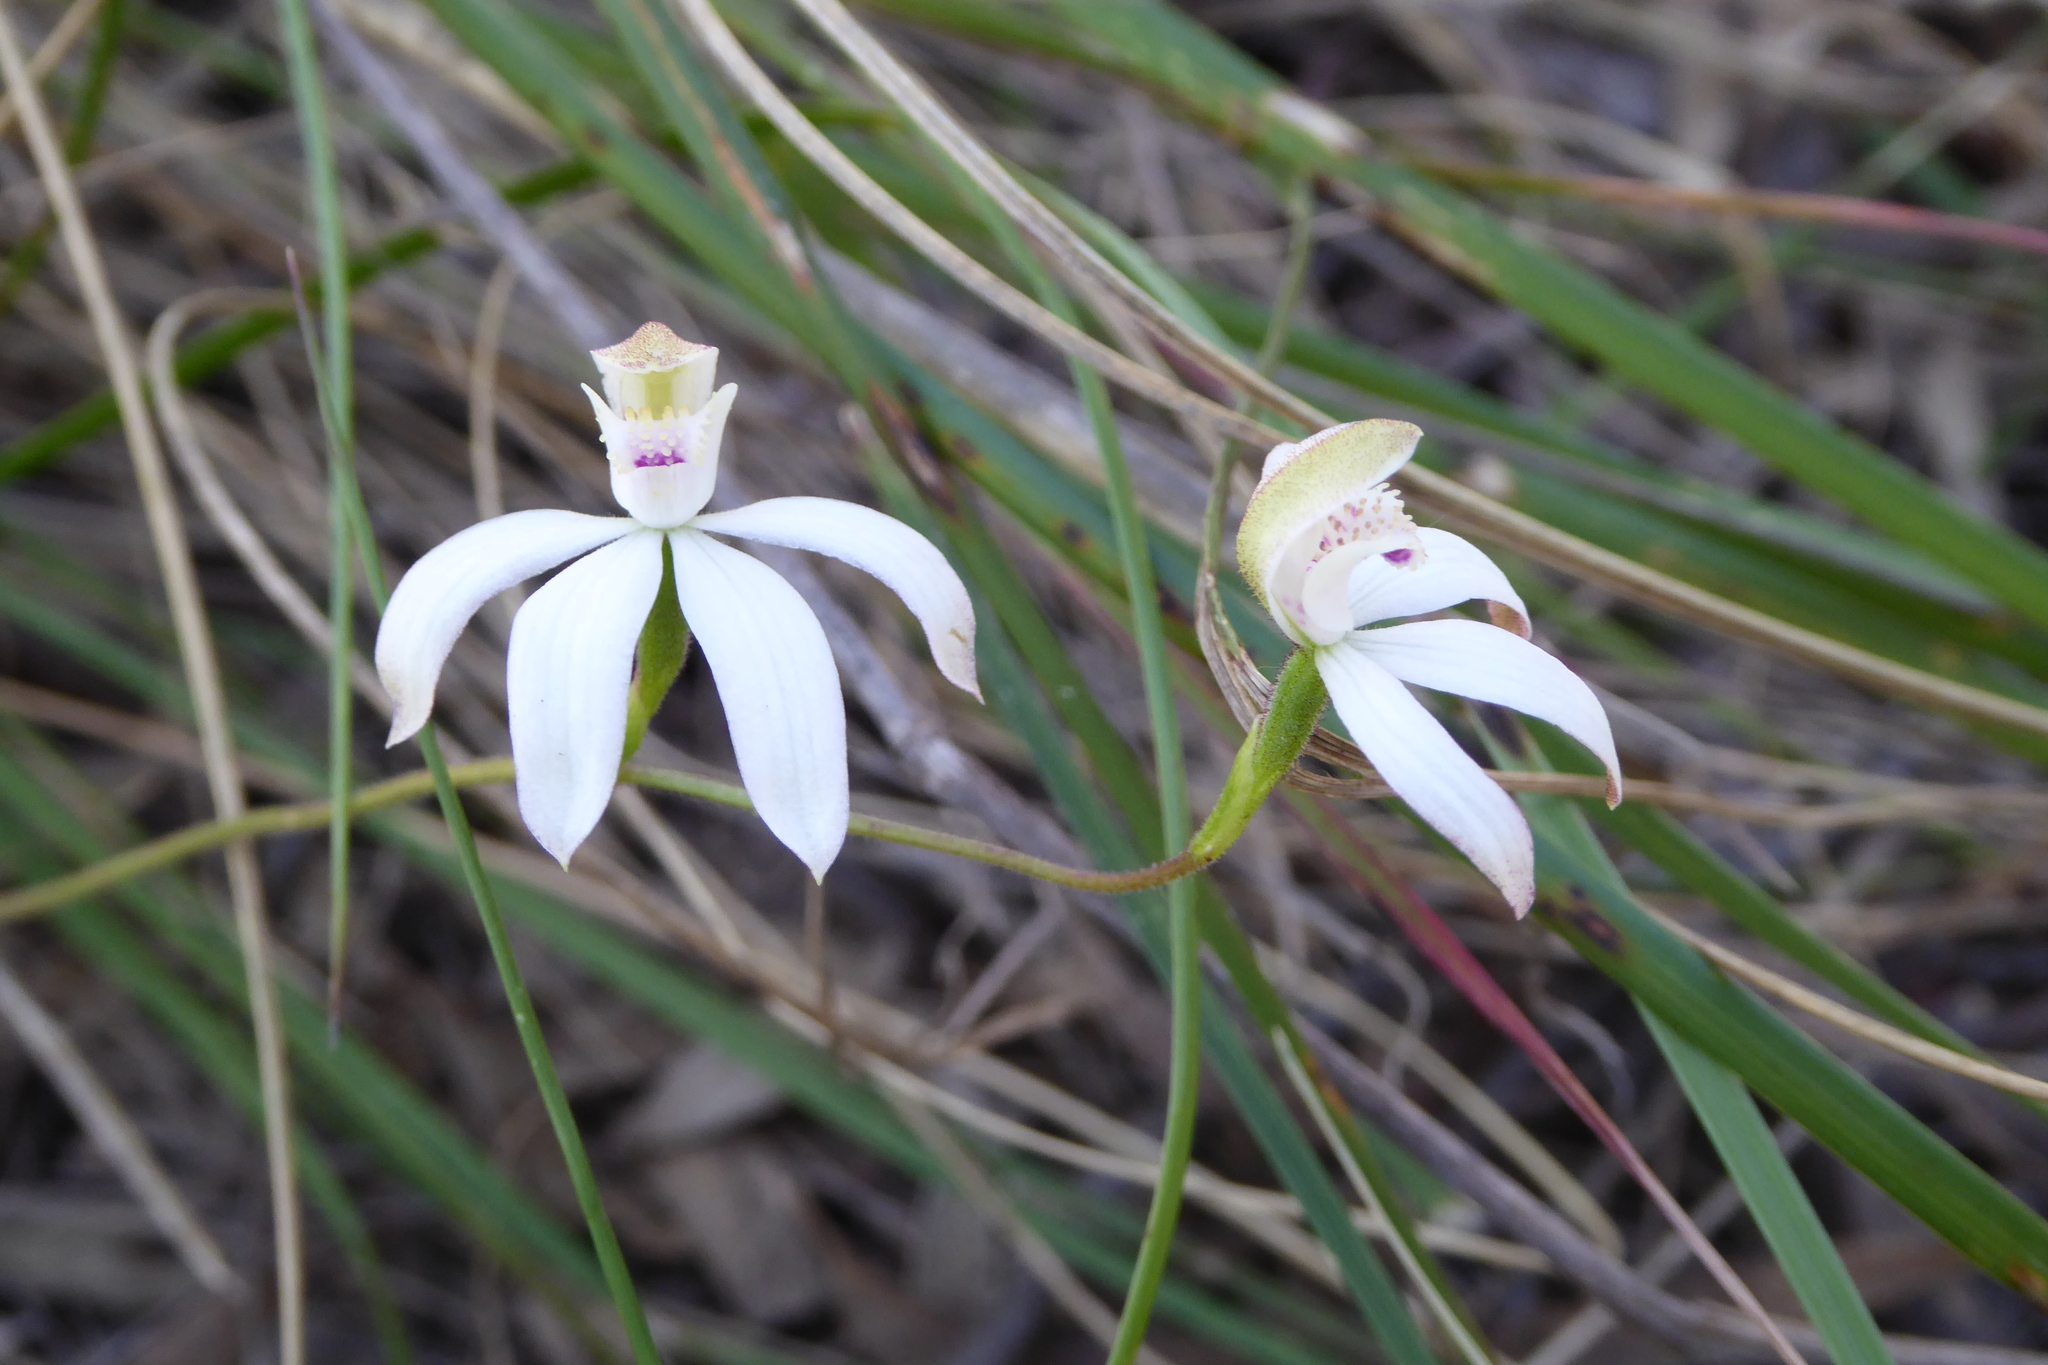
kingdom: Plantae
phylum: Tracheophyta
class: Liliopsida
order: Asparagales
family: Orchidaceae
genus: Caladenia
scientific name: Caladenia moschata
